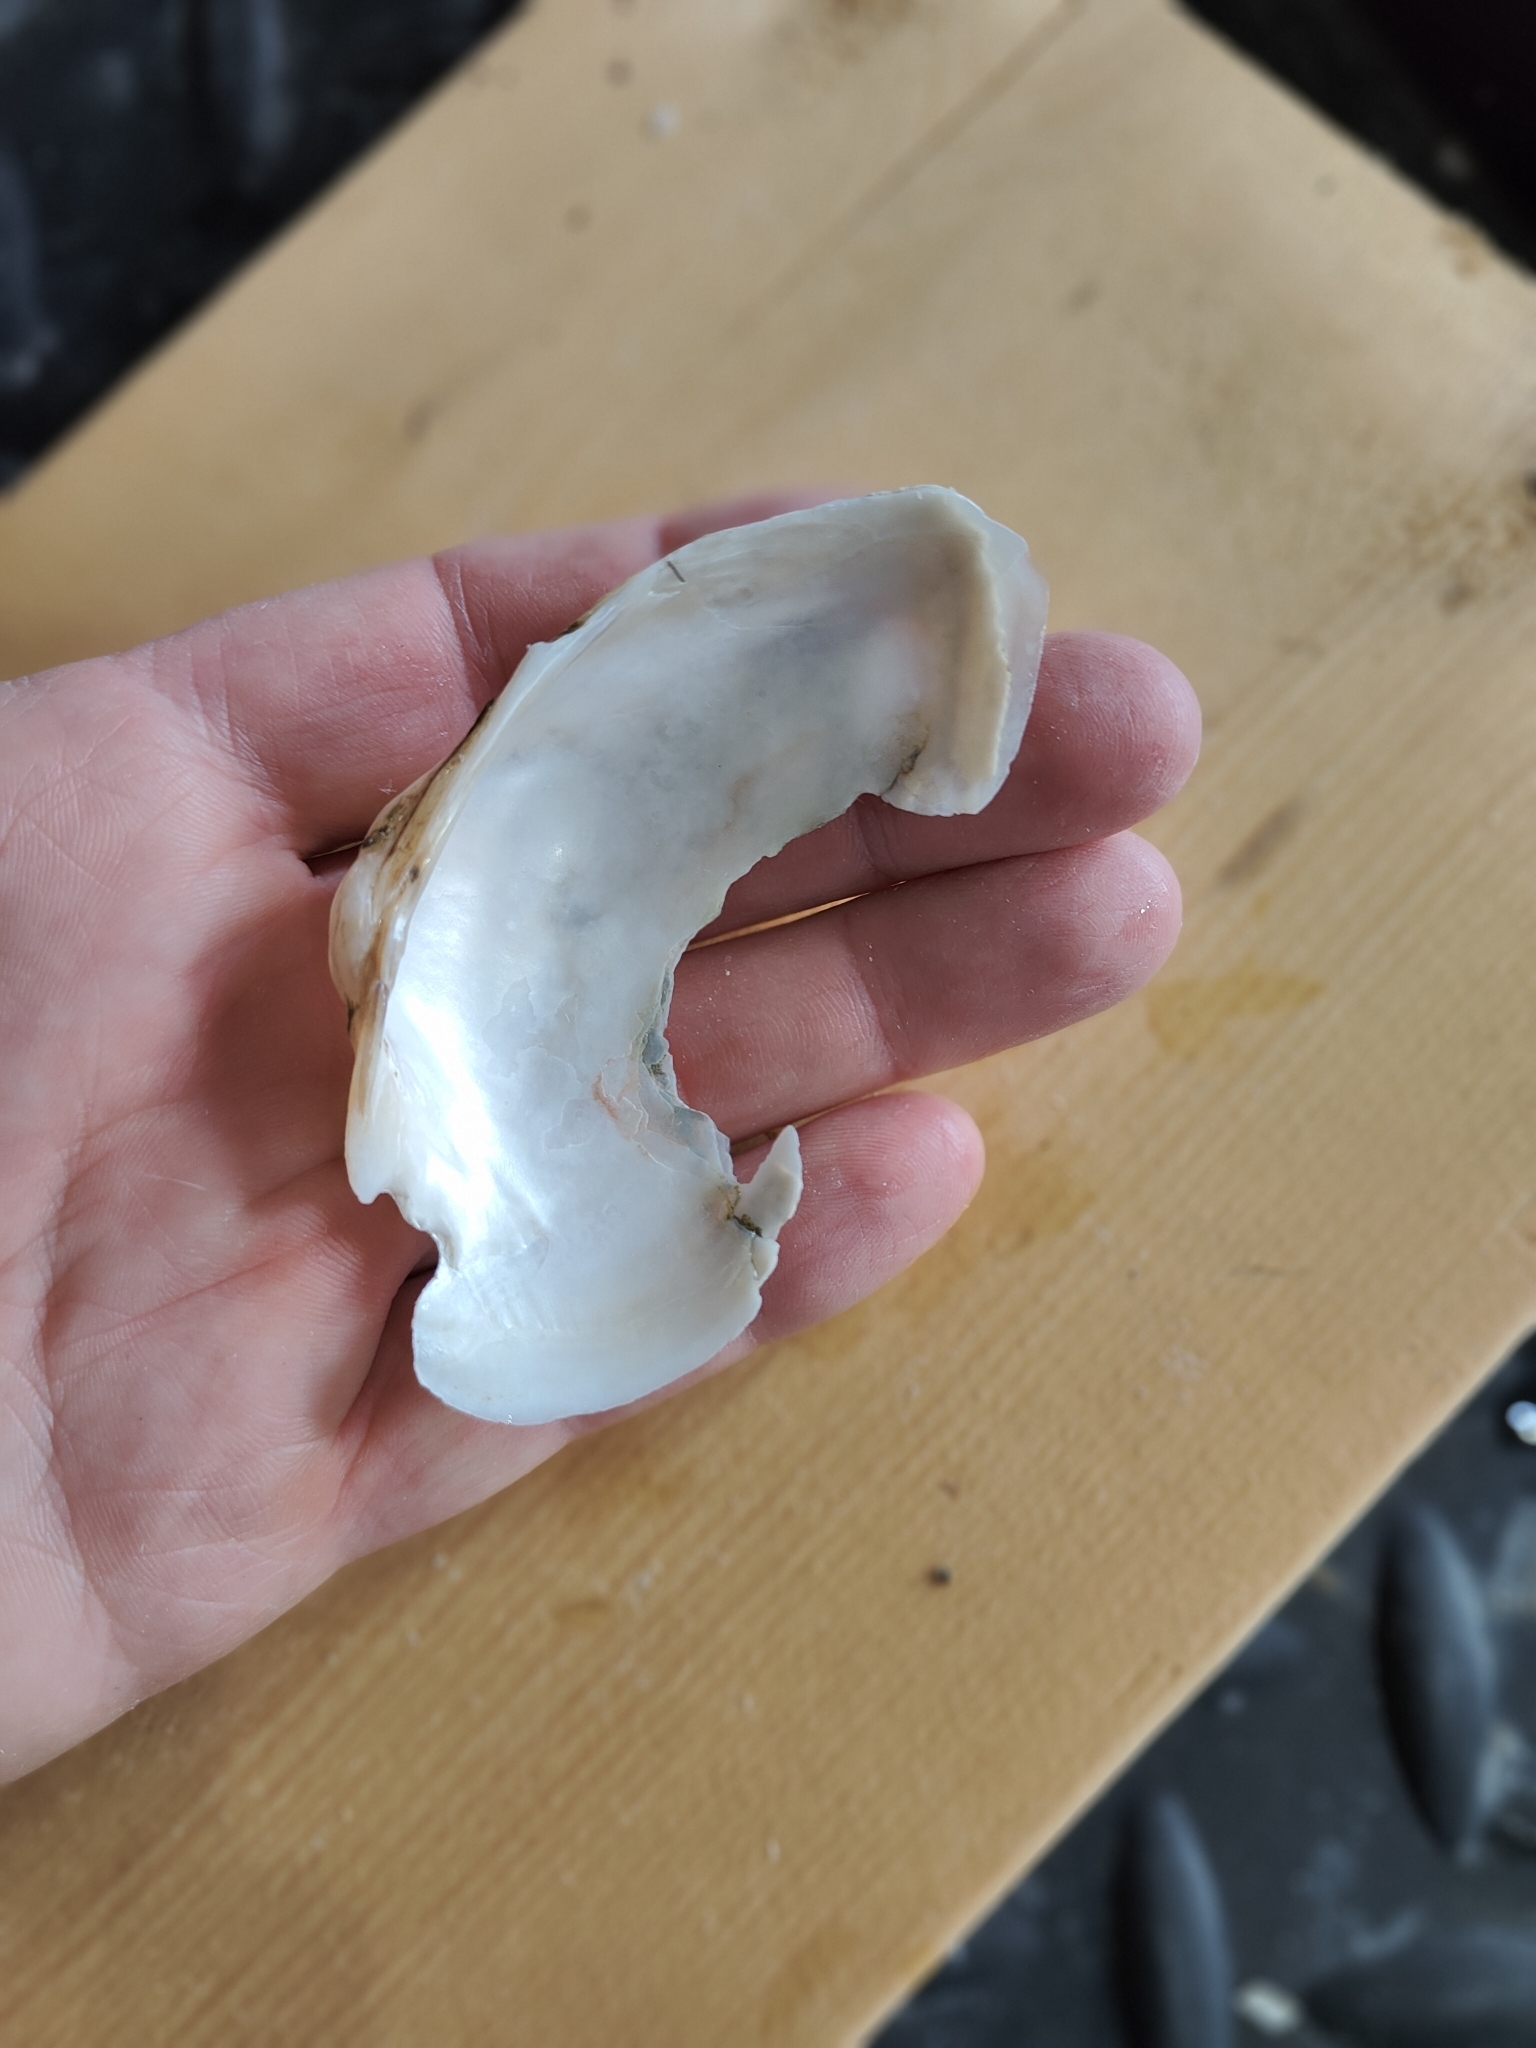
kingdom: Animalia
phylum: Mollusca
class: Bivalvia
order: Unionida
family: Unionidae
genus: Alasmidonta
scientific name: Alasmidonta marginata
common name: Elktoe
